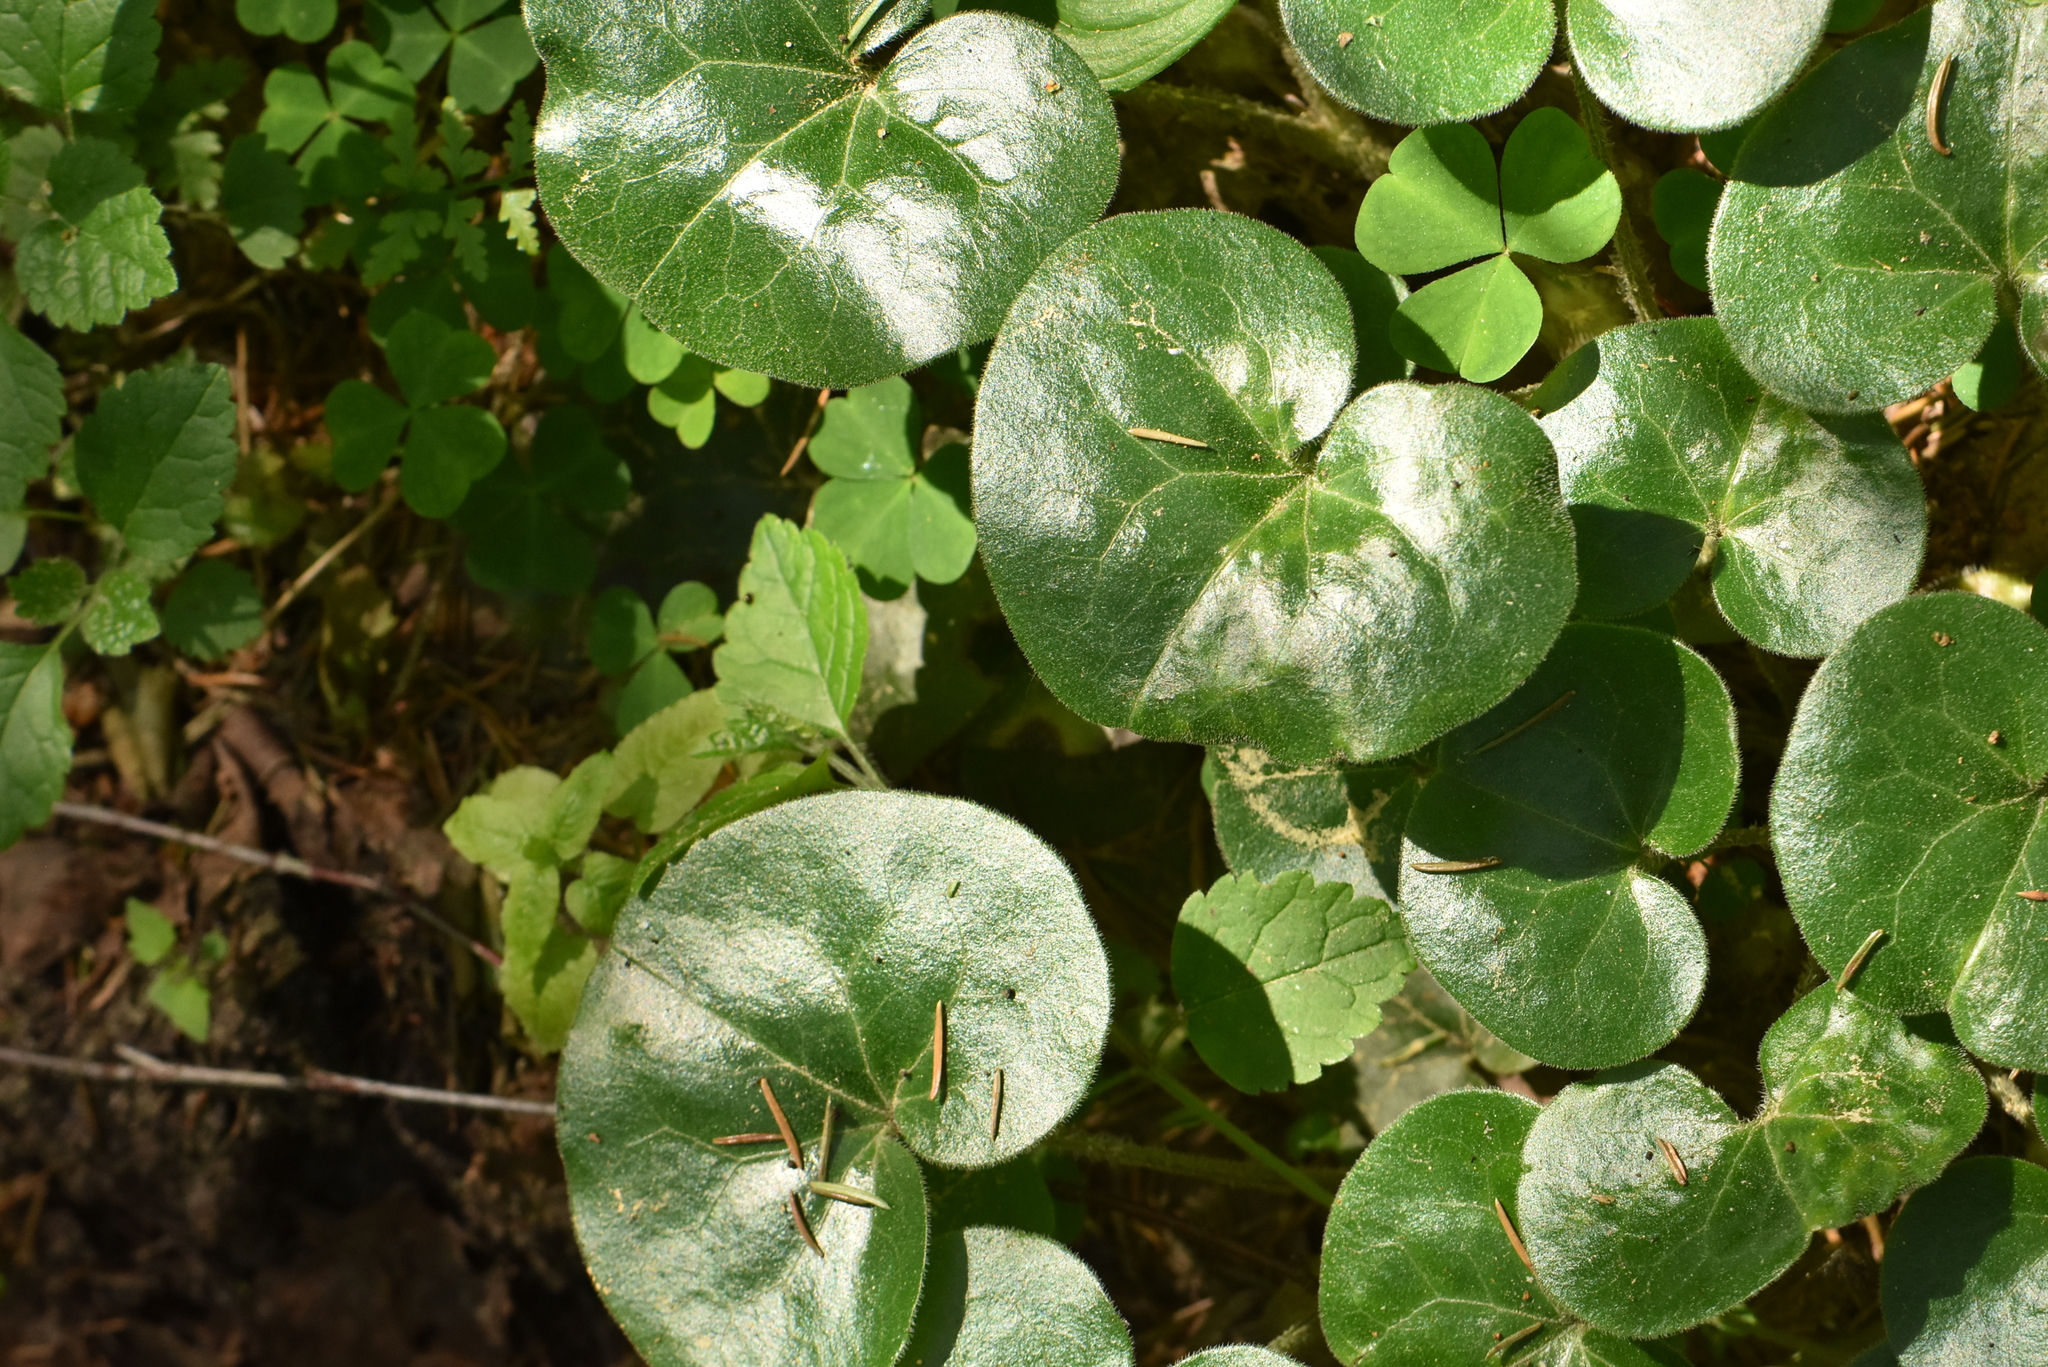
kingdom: Plantae
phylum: Tracheophyta
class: Magnoliopsida
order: Piperales
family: Aristolochiaceae
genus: Asarum
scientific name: Asarum europaeum
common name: Asarabacca
